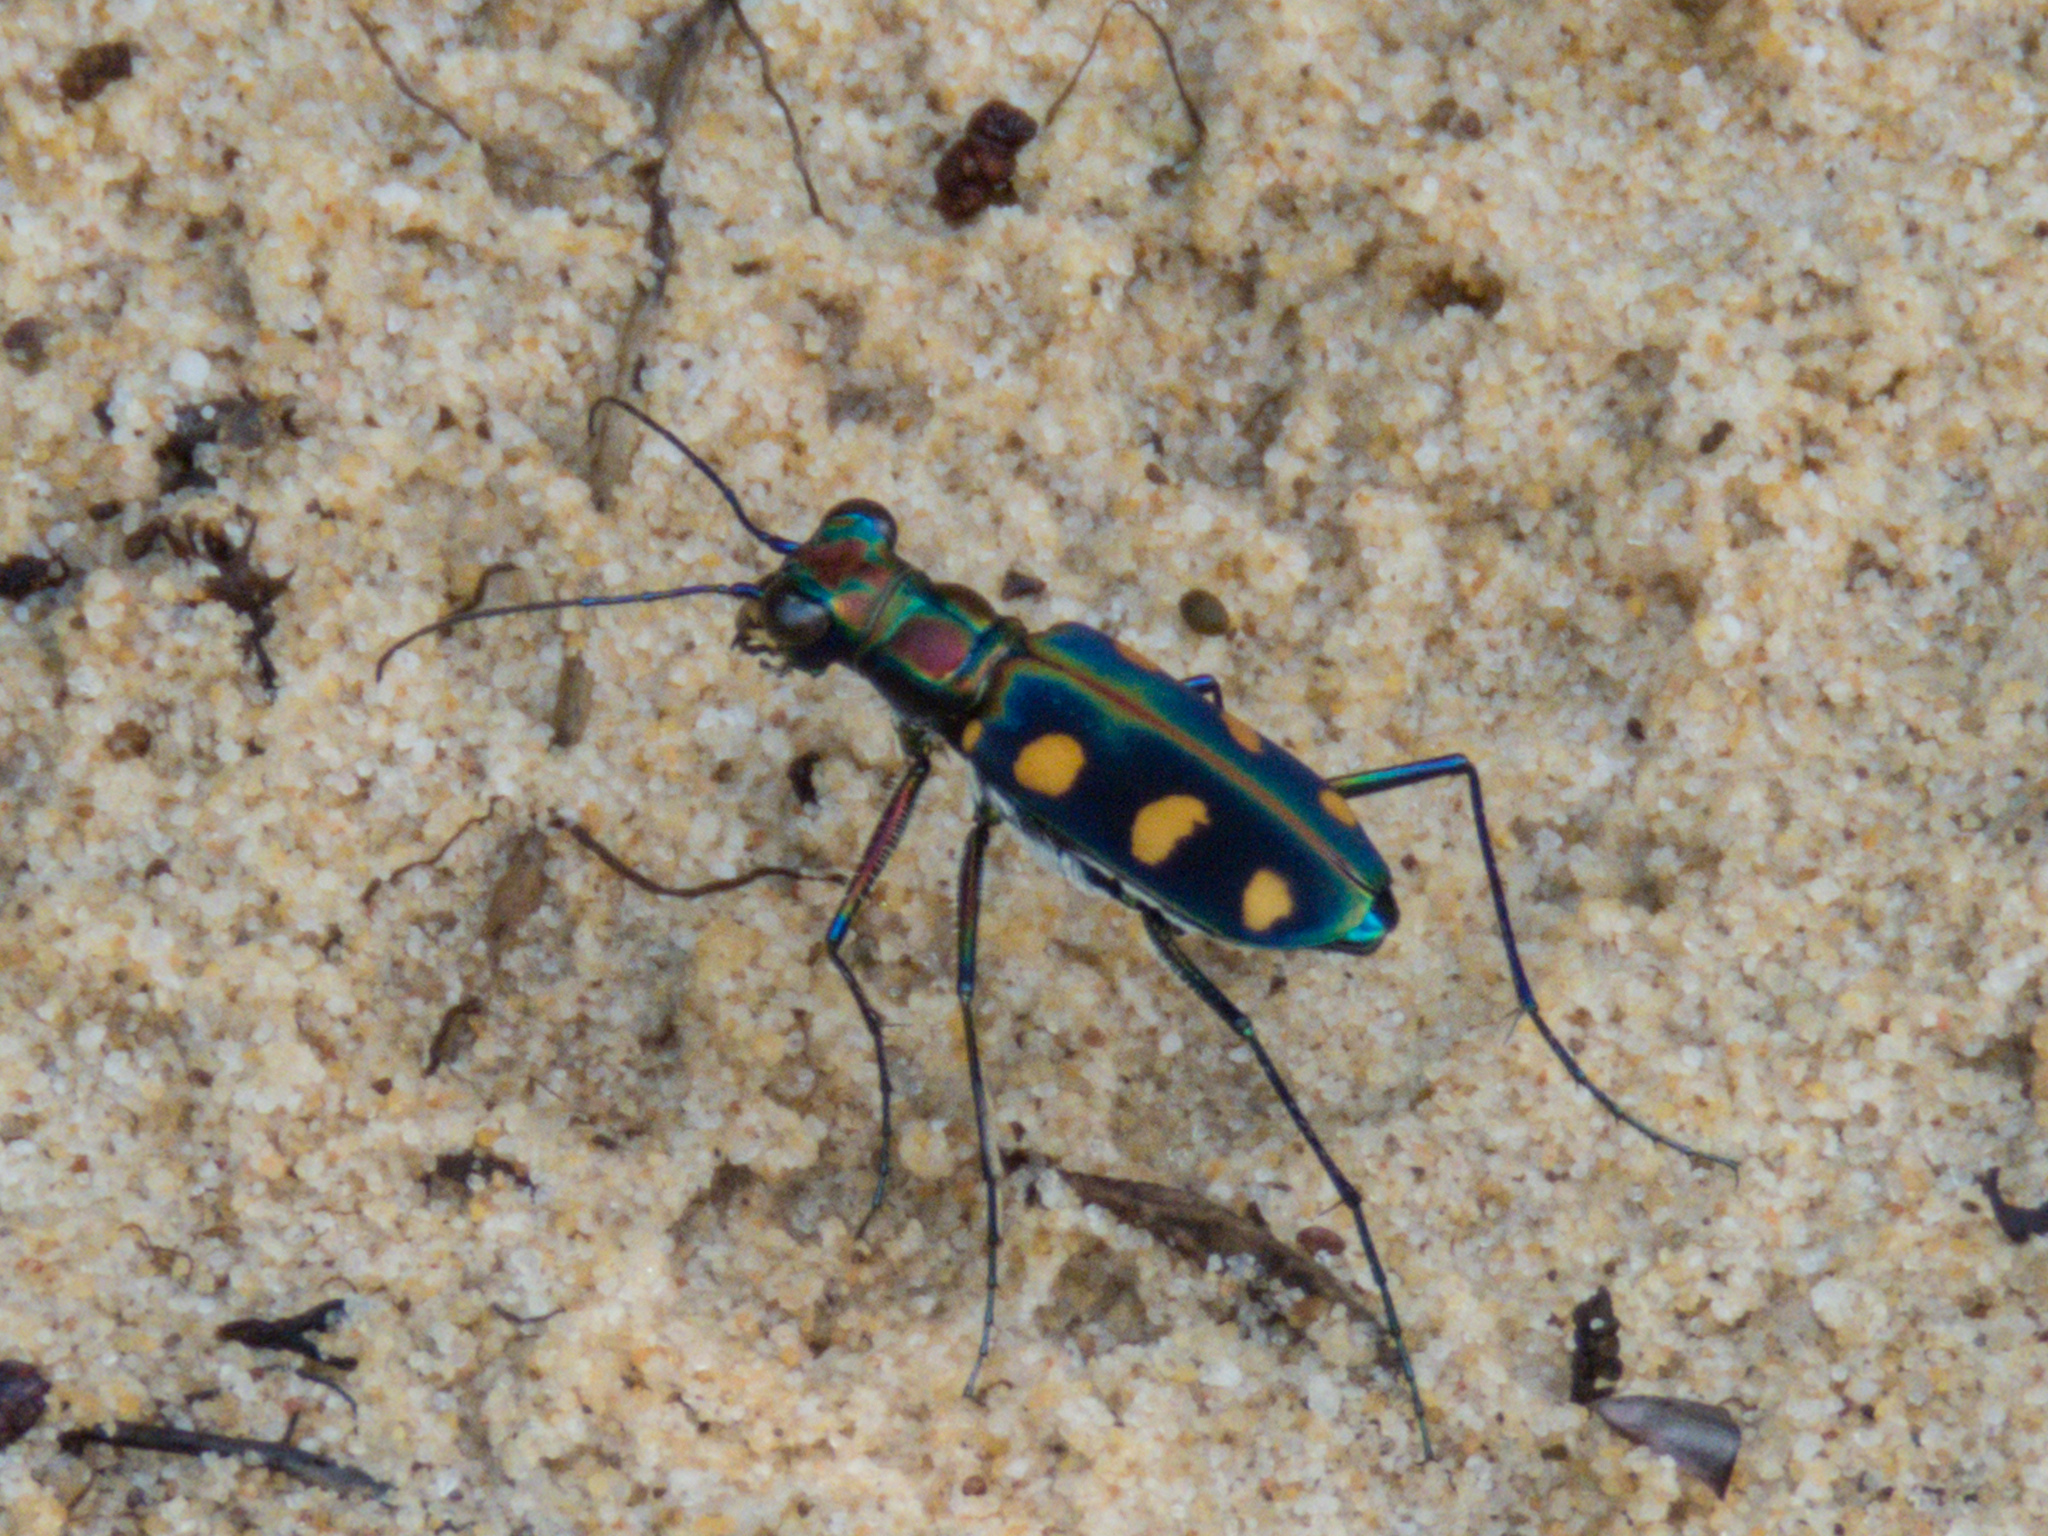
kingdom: Animalia
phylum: Arthropoda
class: Insecta
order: Coleoptera
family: Carabidae
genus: Cicindela
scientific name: Cicindela juxtata
